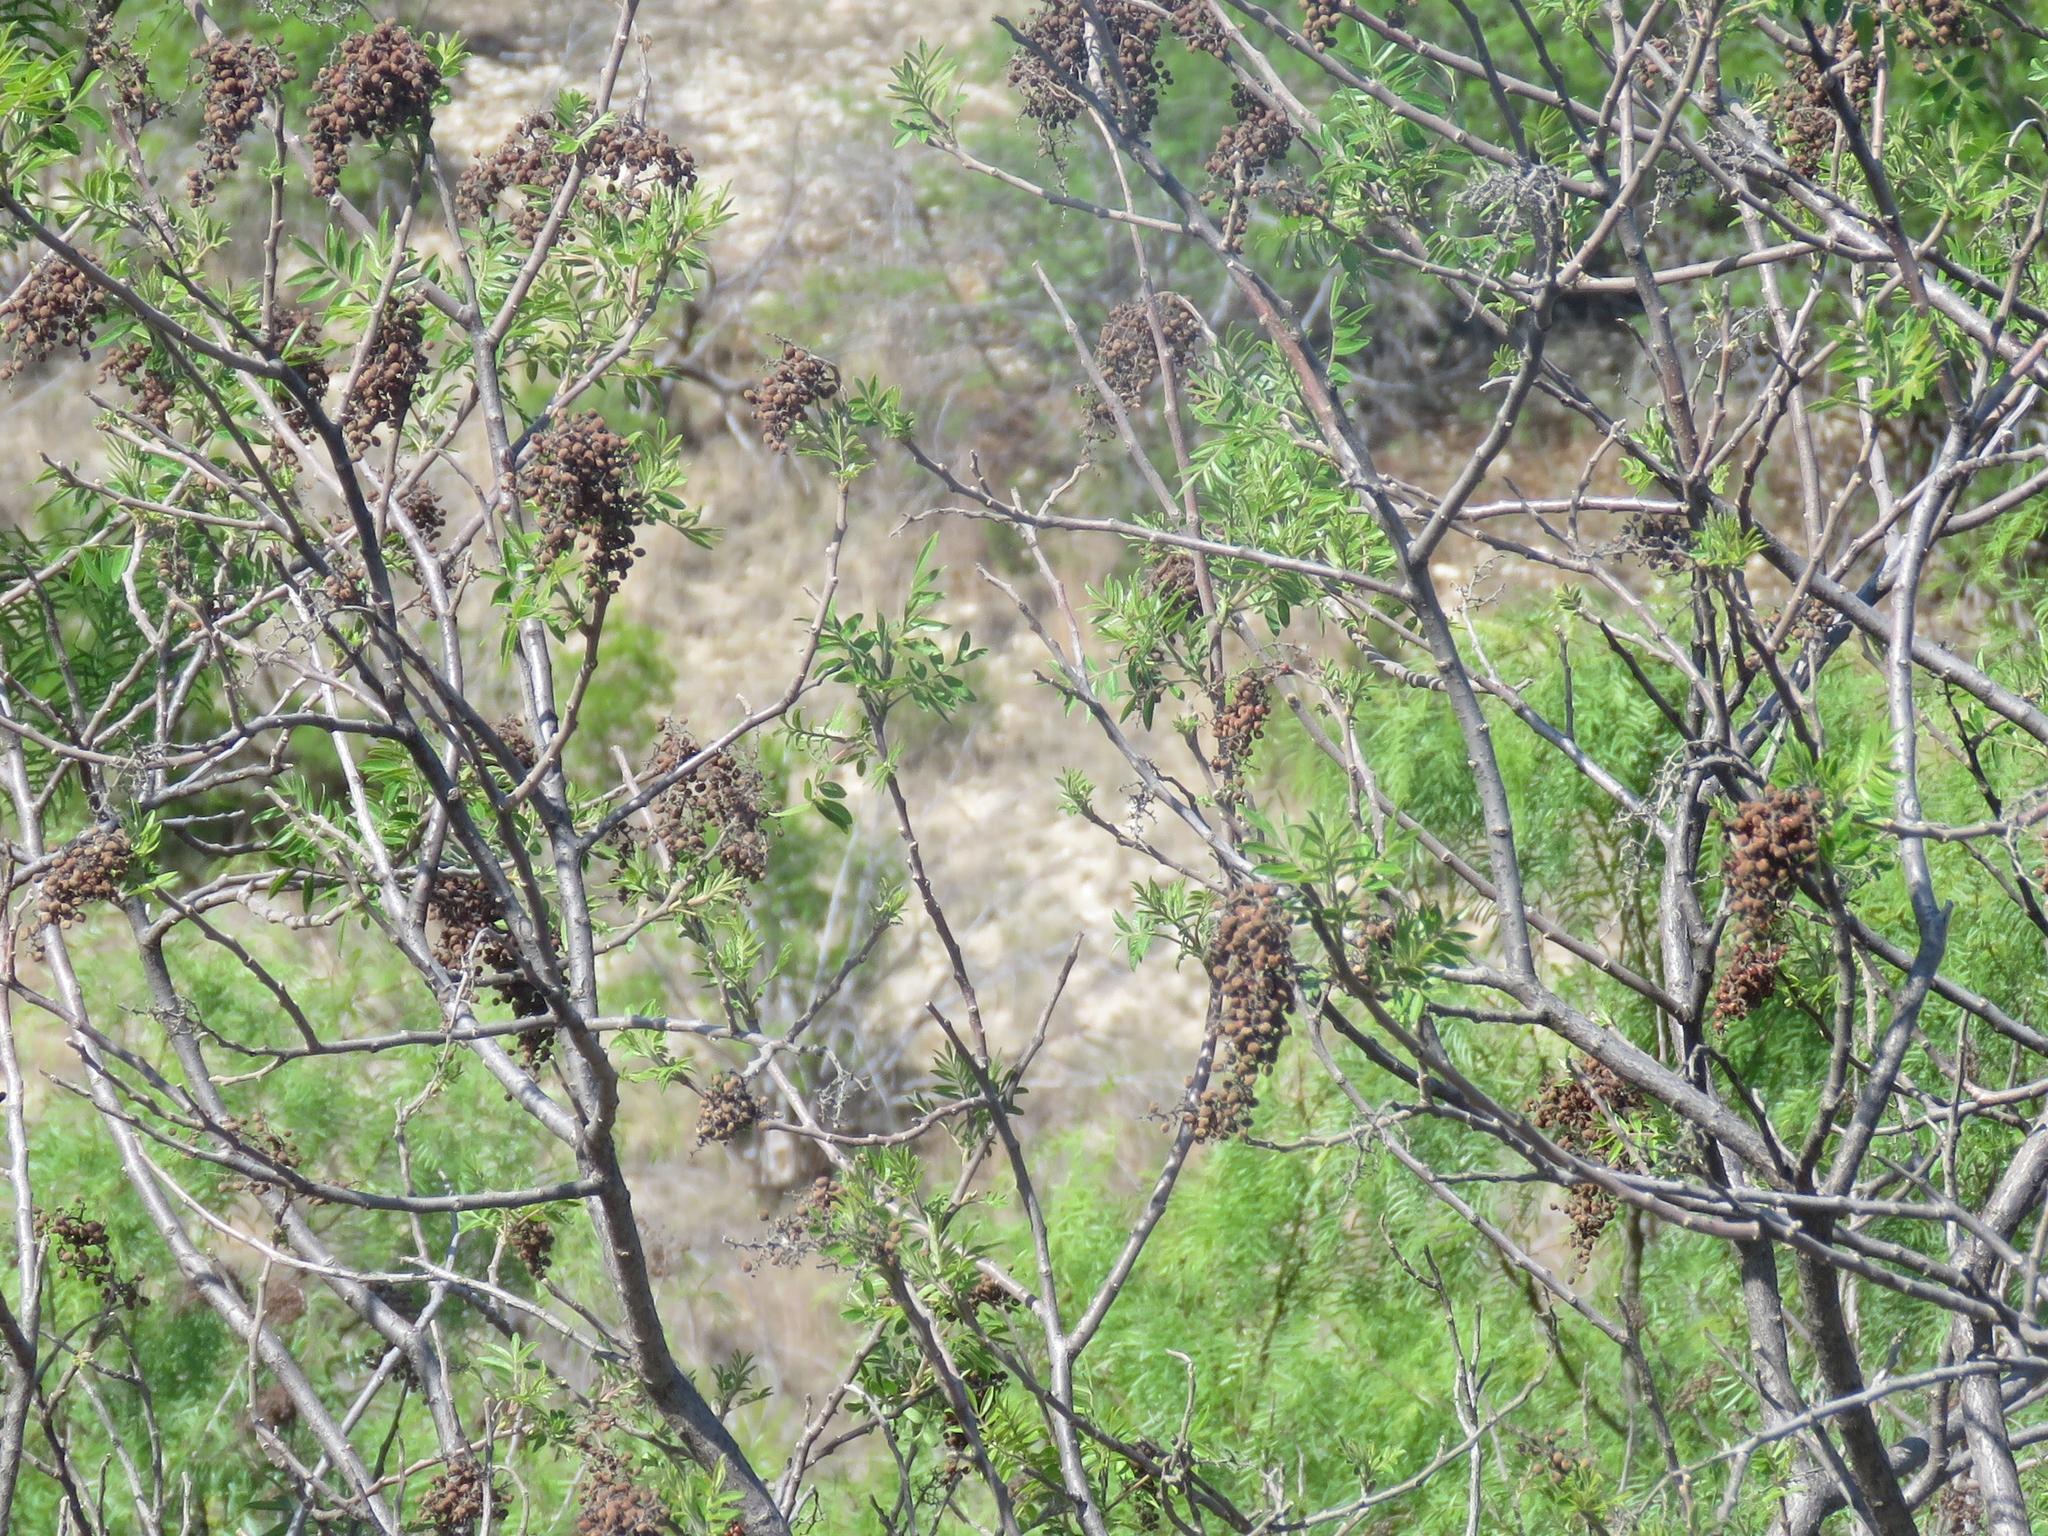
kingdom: Plantae
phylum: Tracheophyta
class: Magnoliopsida
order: Sapindales
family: Anacardiaceae
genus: Rhus
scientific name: Rhus lanceolata
